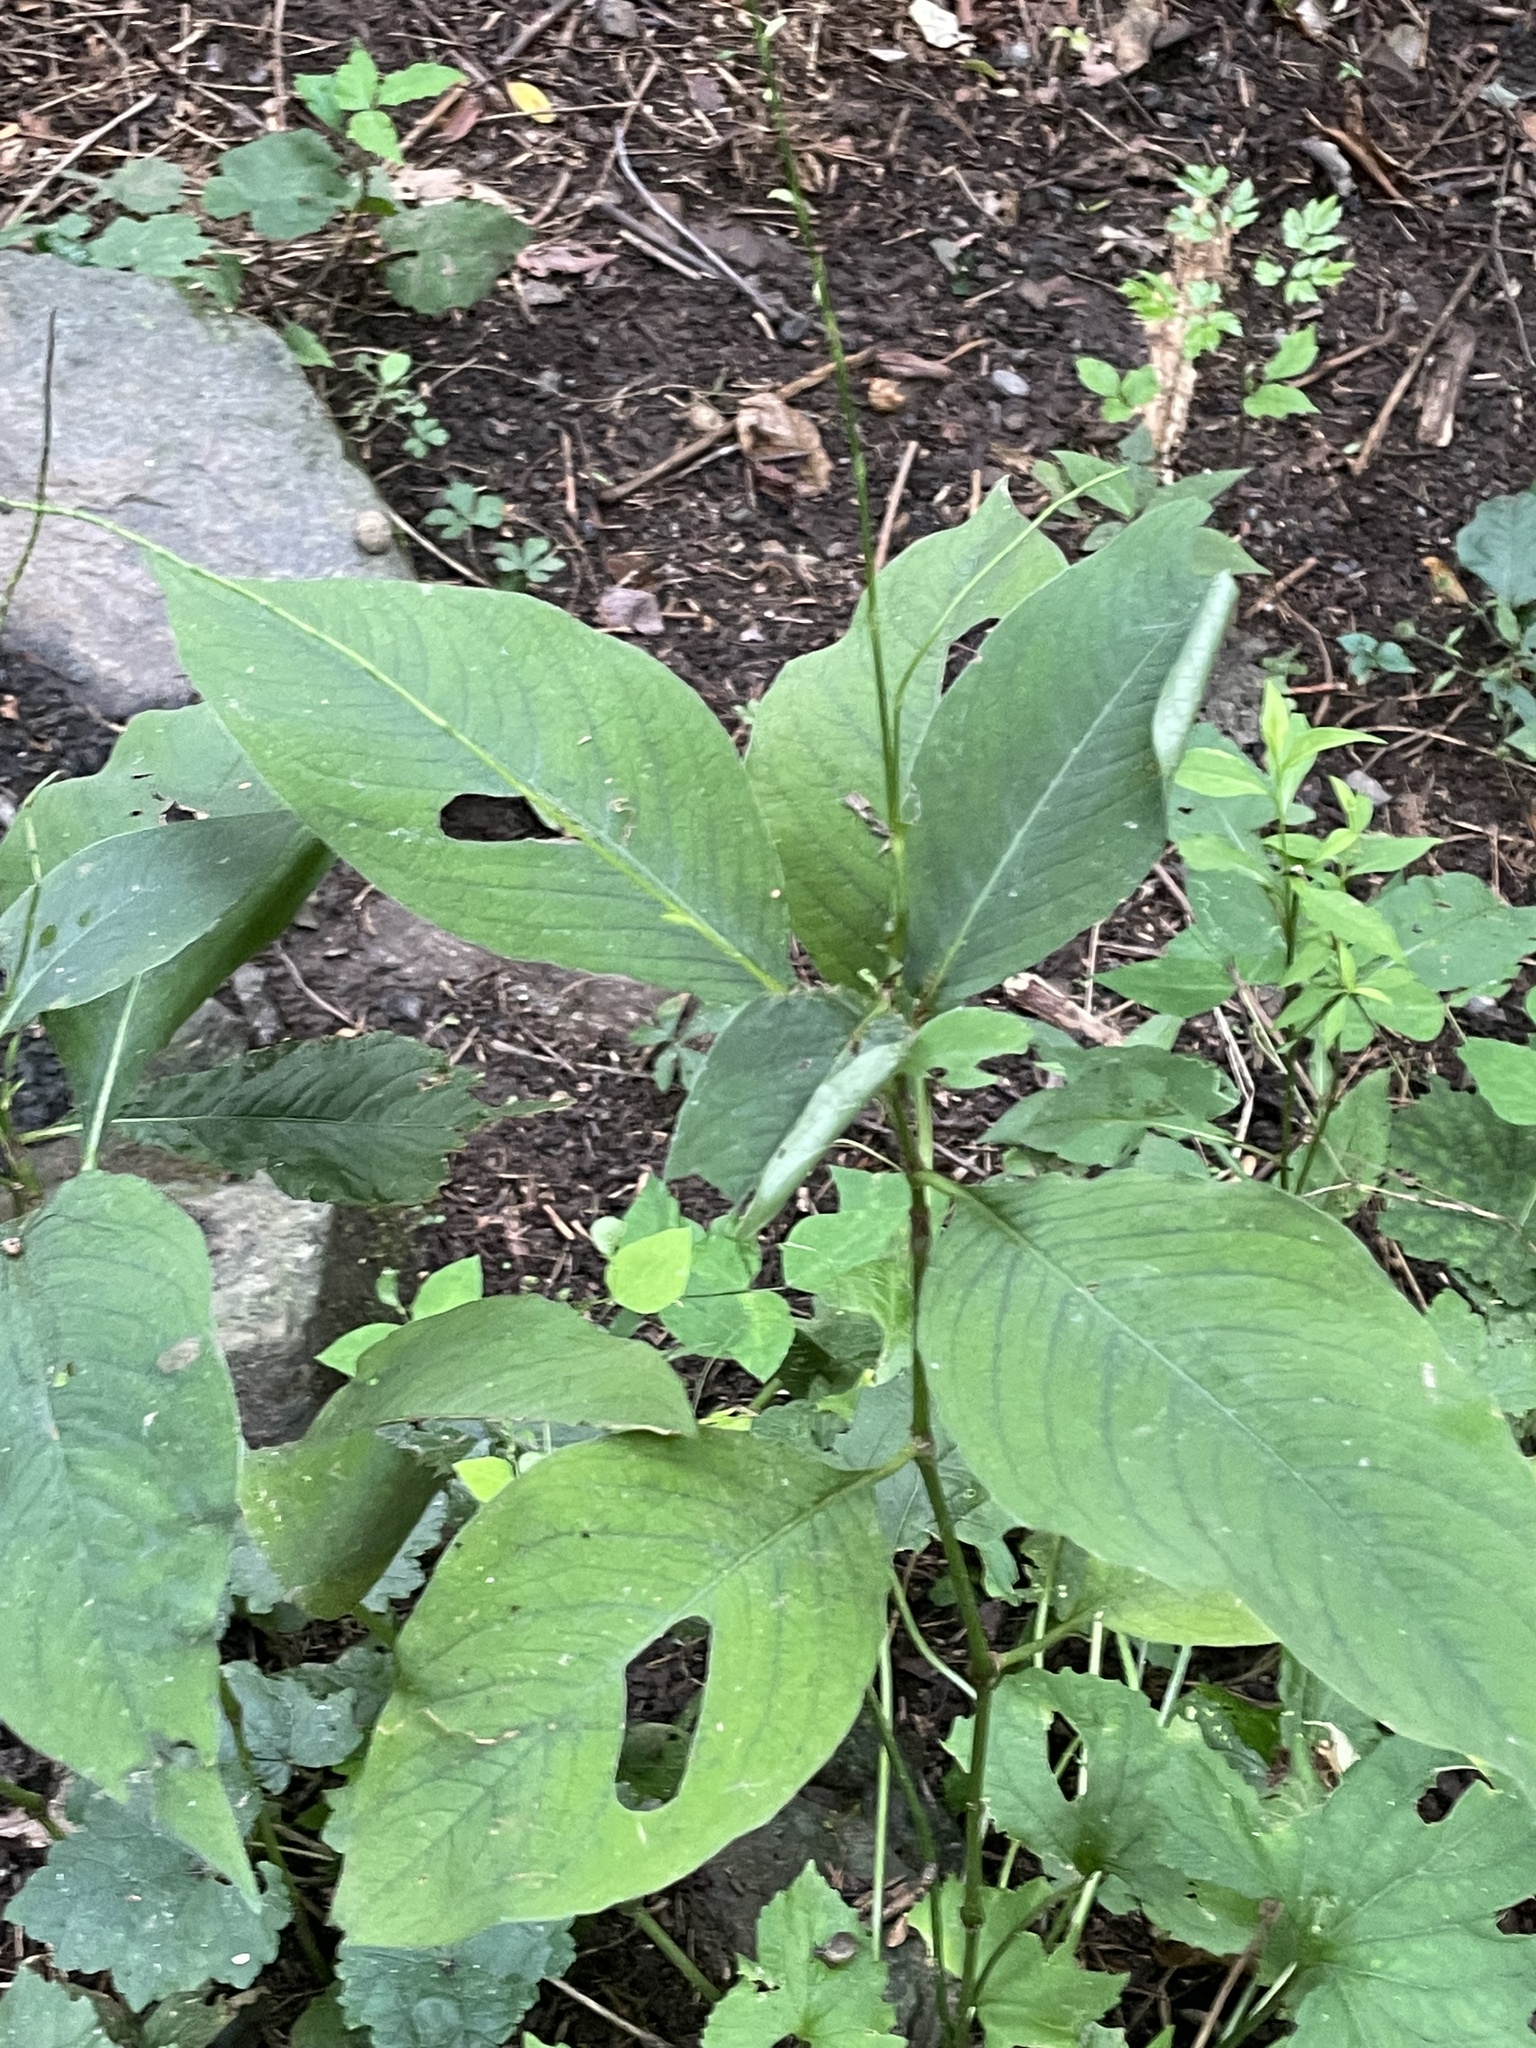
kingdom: Plantae
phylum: Tracheophyta
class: Magnoliopsida
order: Caryophyllales
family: Polygonaceae
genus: Persicaria
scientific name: Persicaria virginiana
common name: Jumpseed
